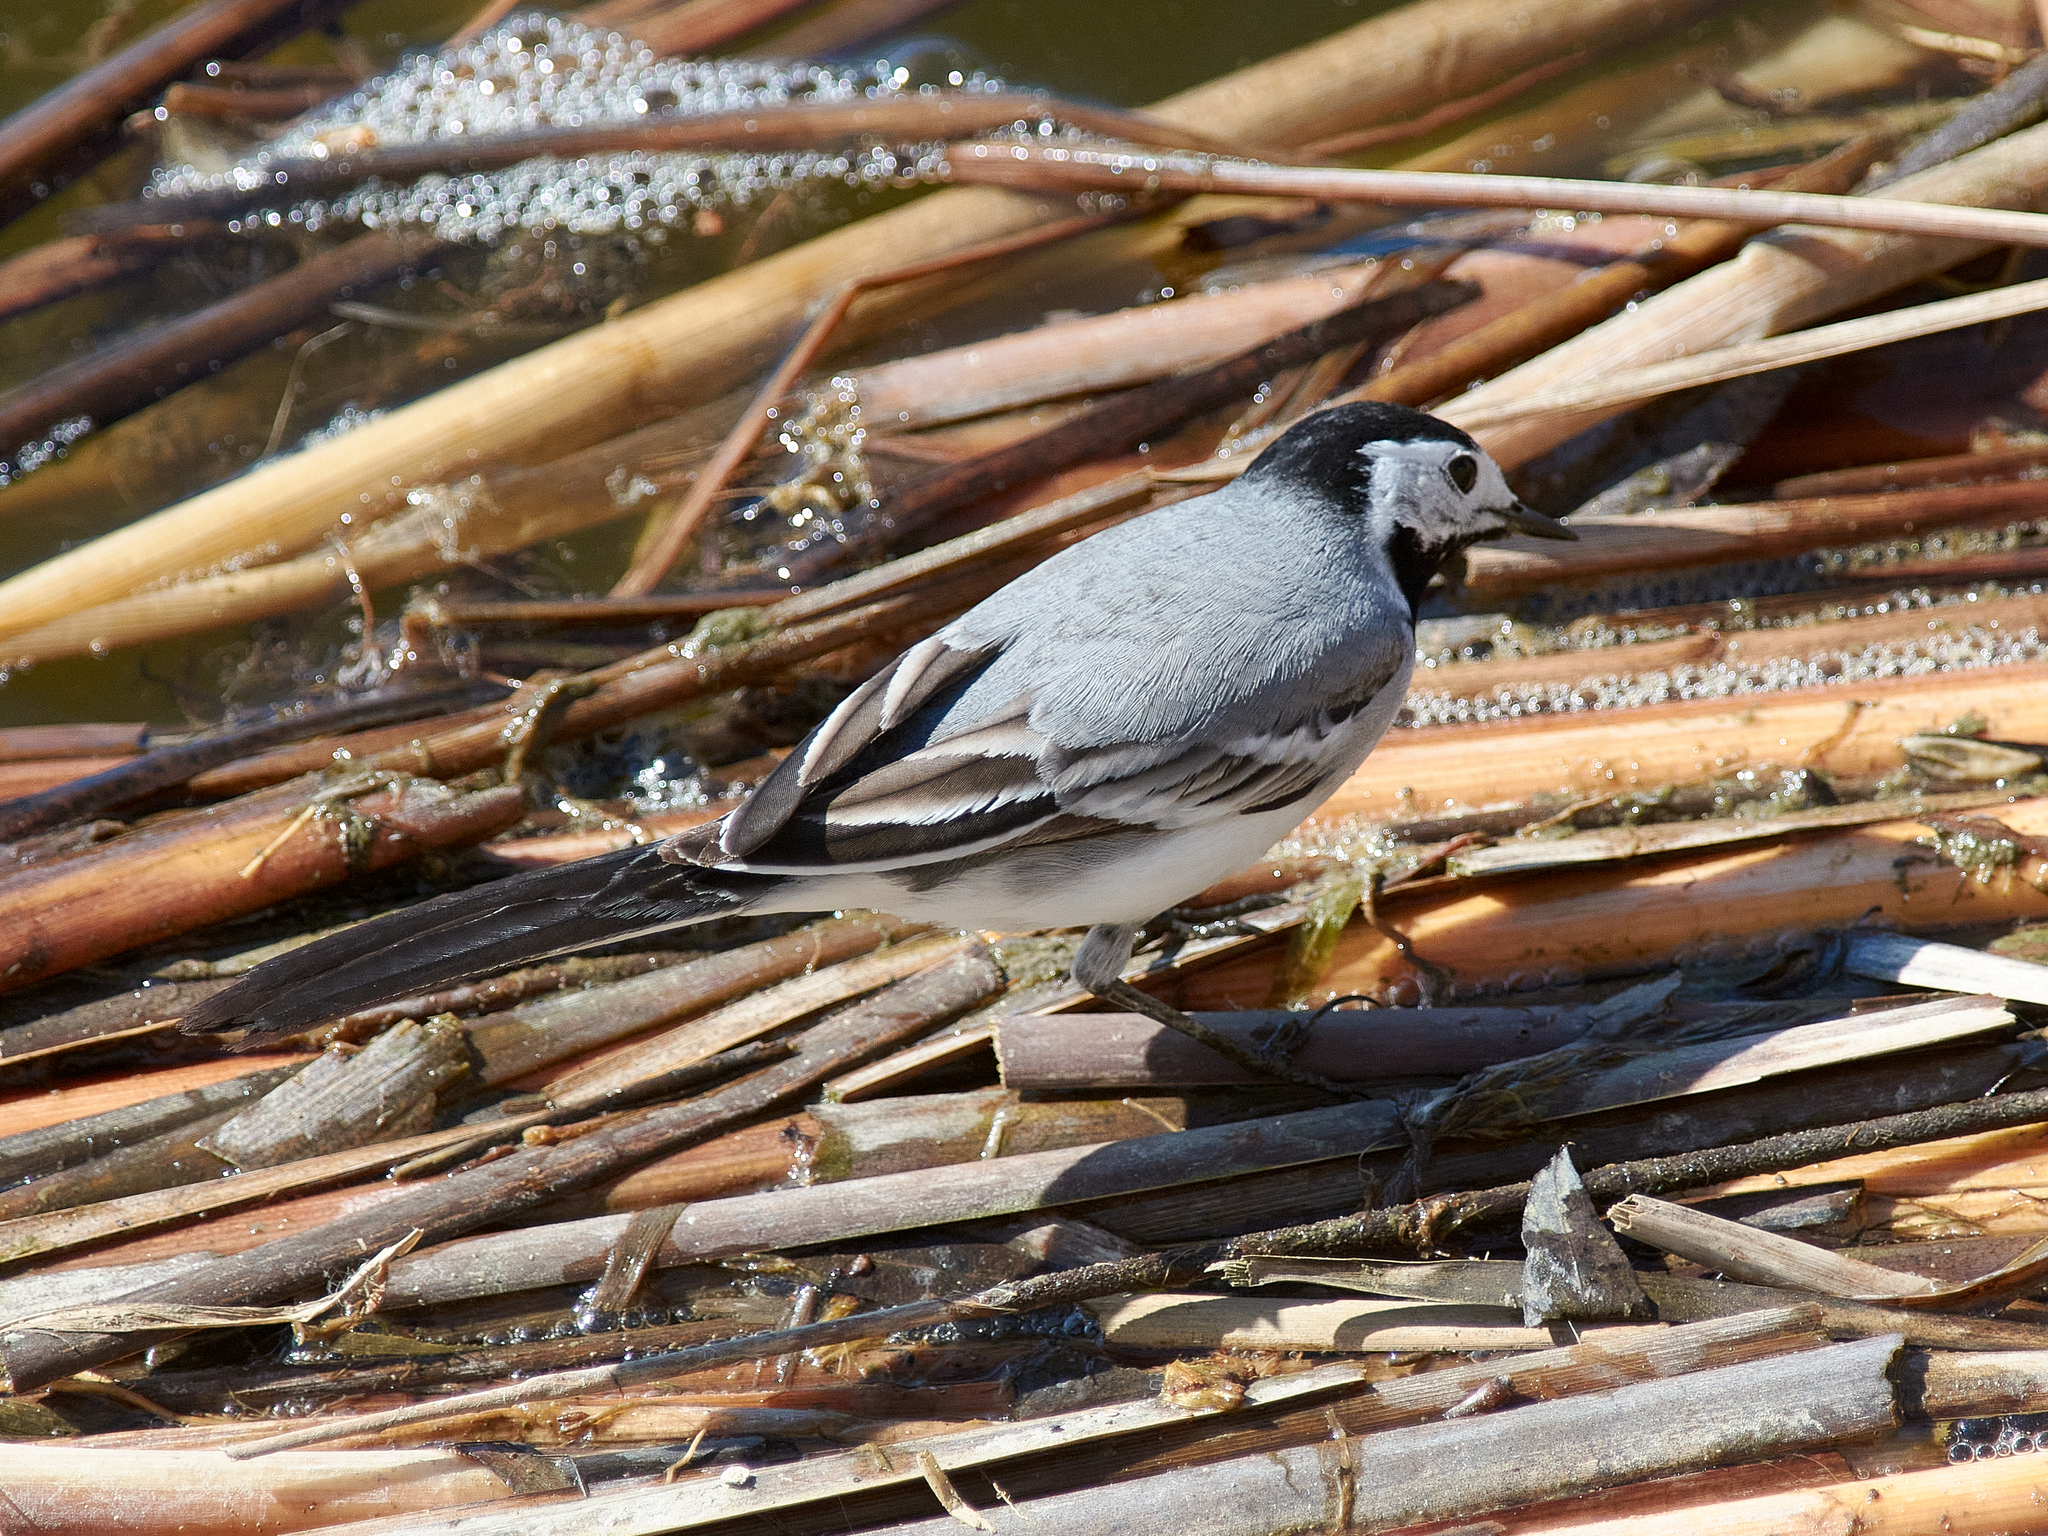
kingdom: Animalia
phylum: Chordata
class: Aves
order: Passeriformes
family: Motacillidae
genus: Motacilla
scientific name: Motacilla alba
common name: White wagtail
